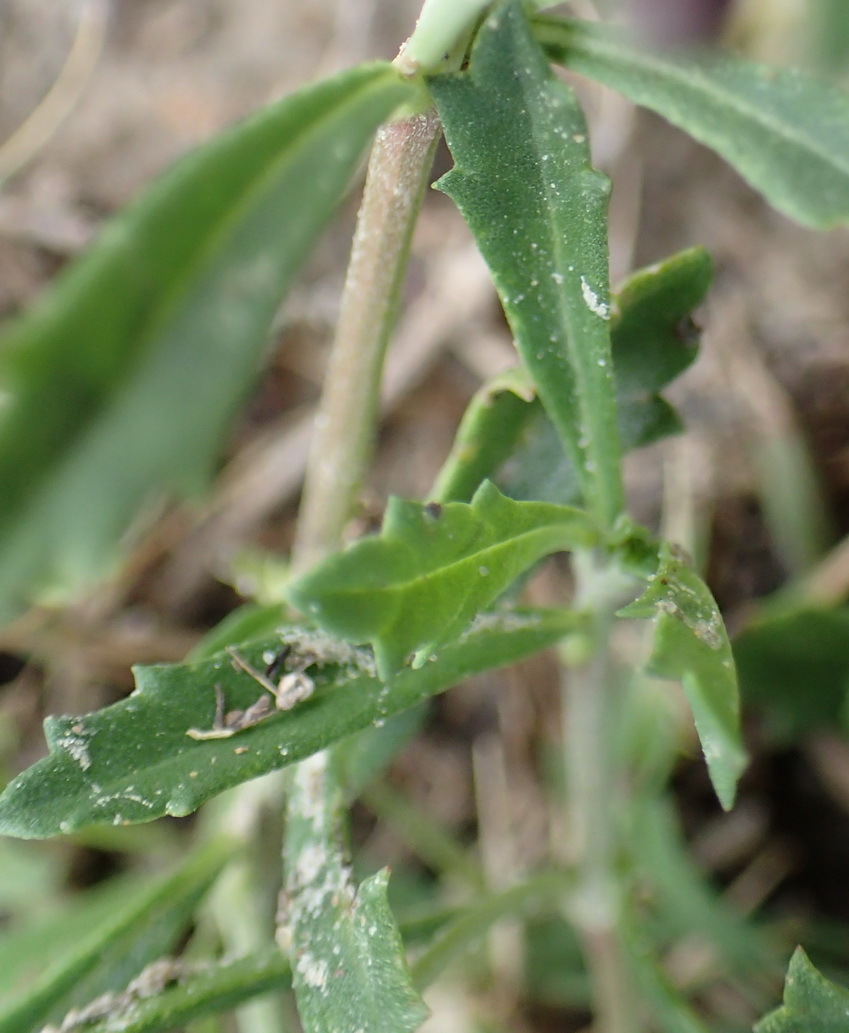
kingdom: Plantae
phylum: Tracheophyta
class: Magnoliopsida
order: Lamiales
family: Verbenaceae
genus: Phyla
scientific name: Phyla nodiflora
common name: Frogfruit
